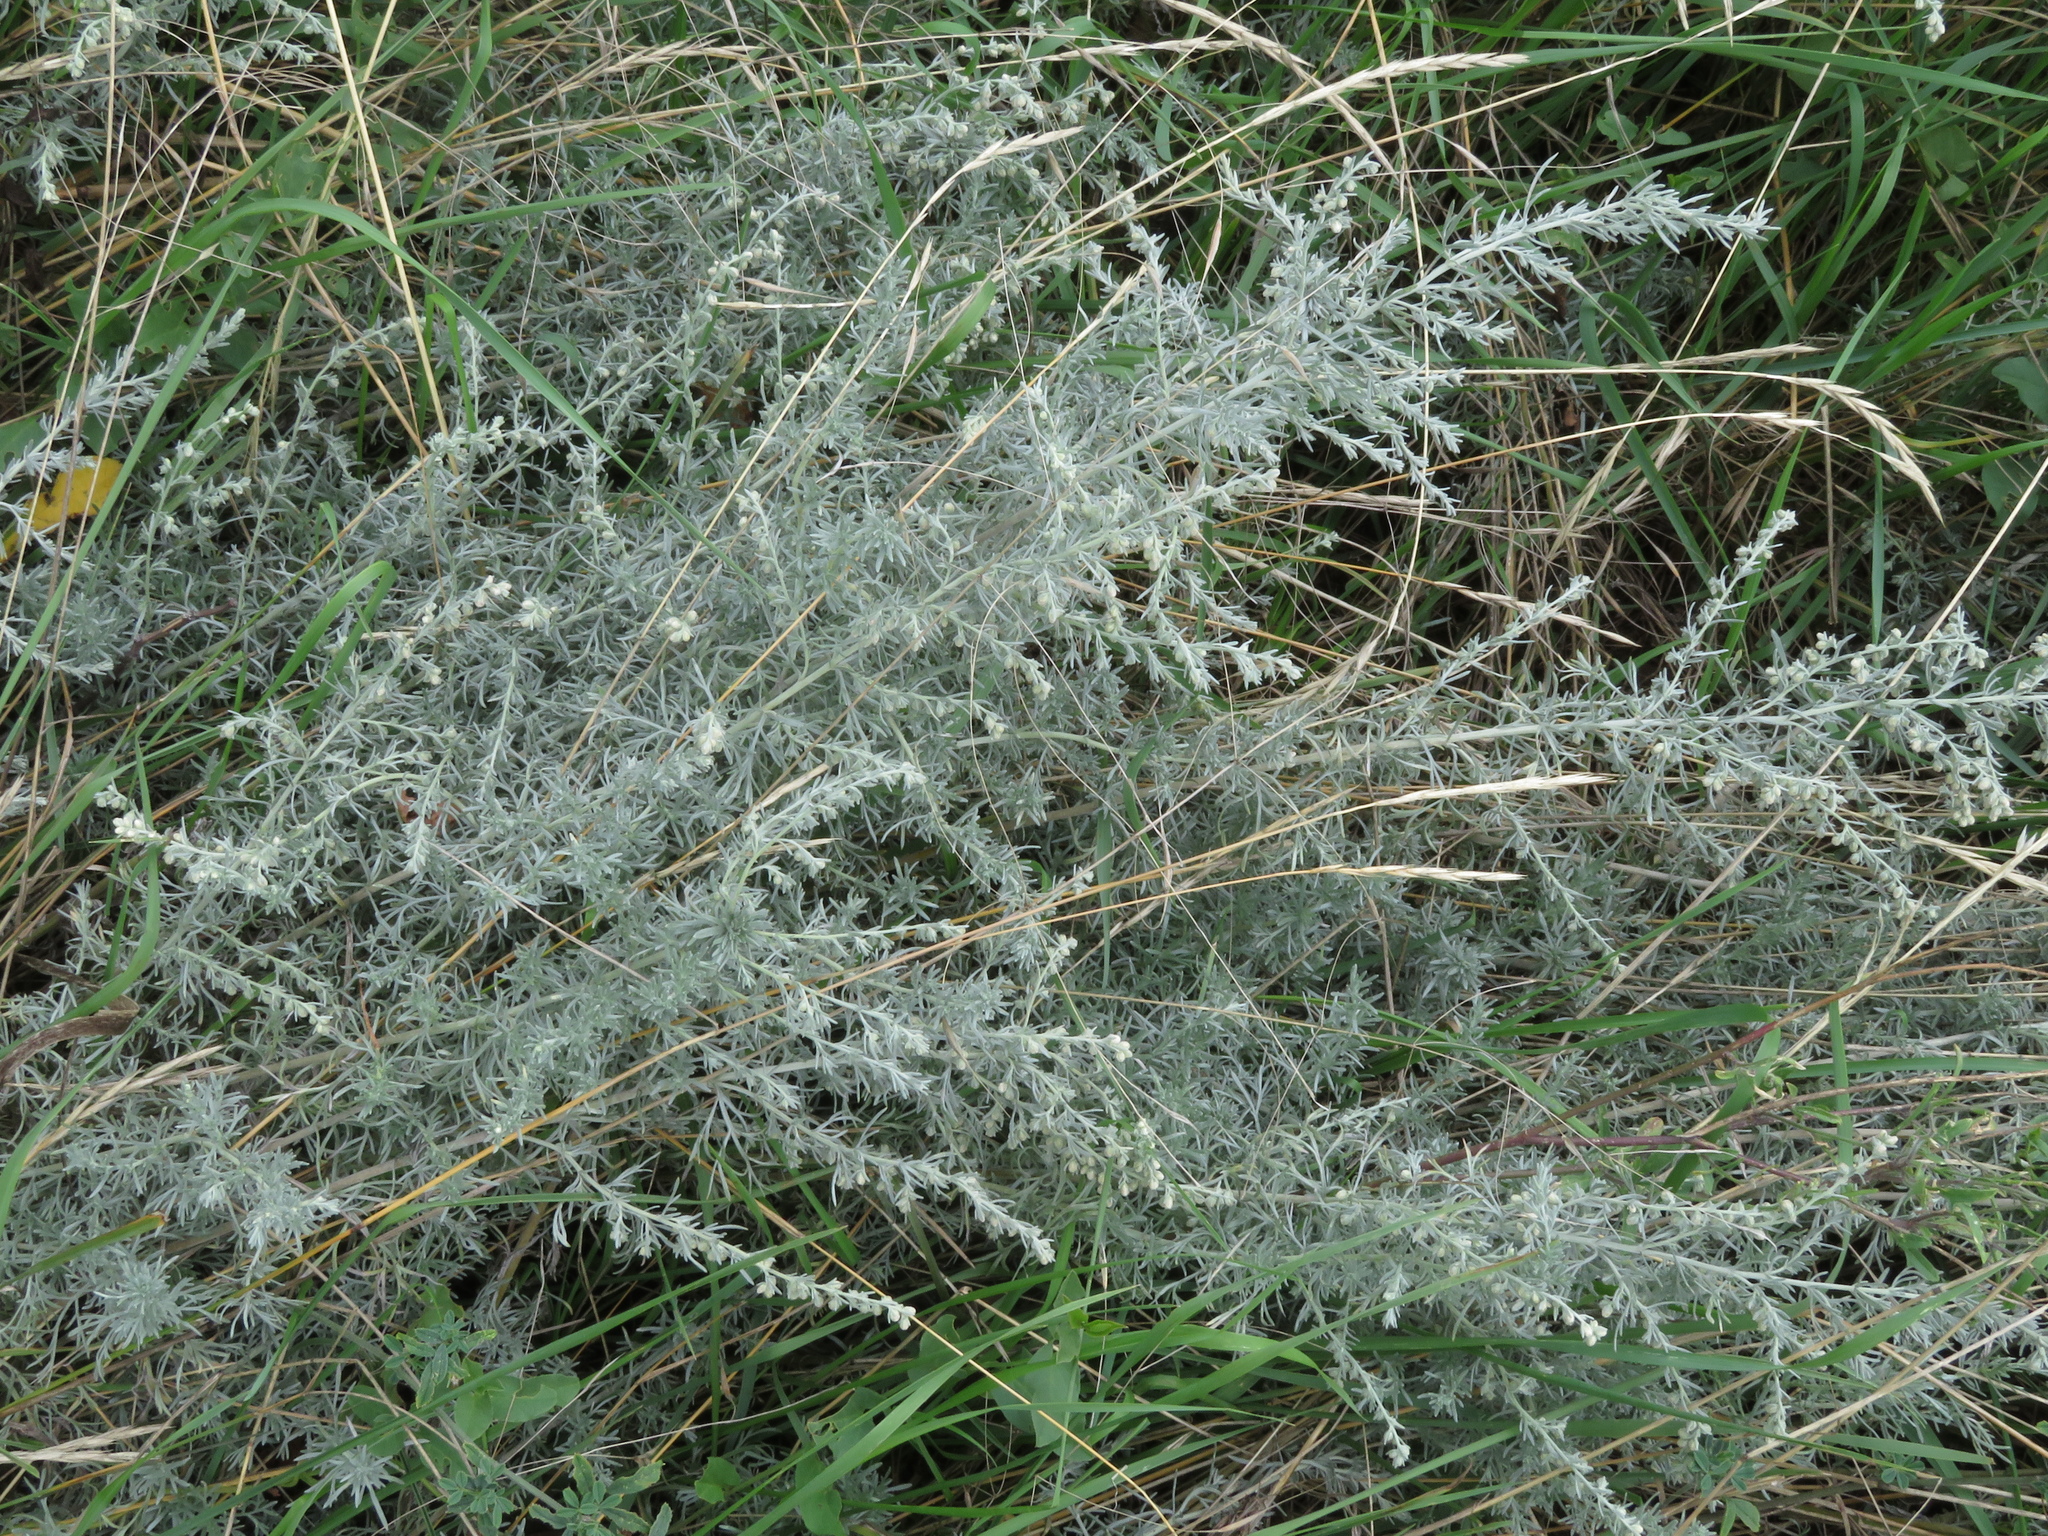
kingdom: Plantae
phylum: Tracheophyta
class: Magnoliopsida
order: Asterales
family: Asteraceae
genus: Artemisia
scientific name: Artemisia austriaca
